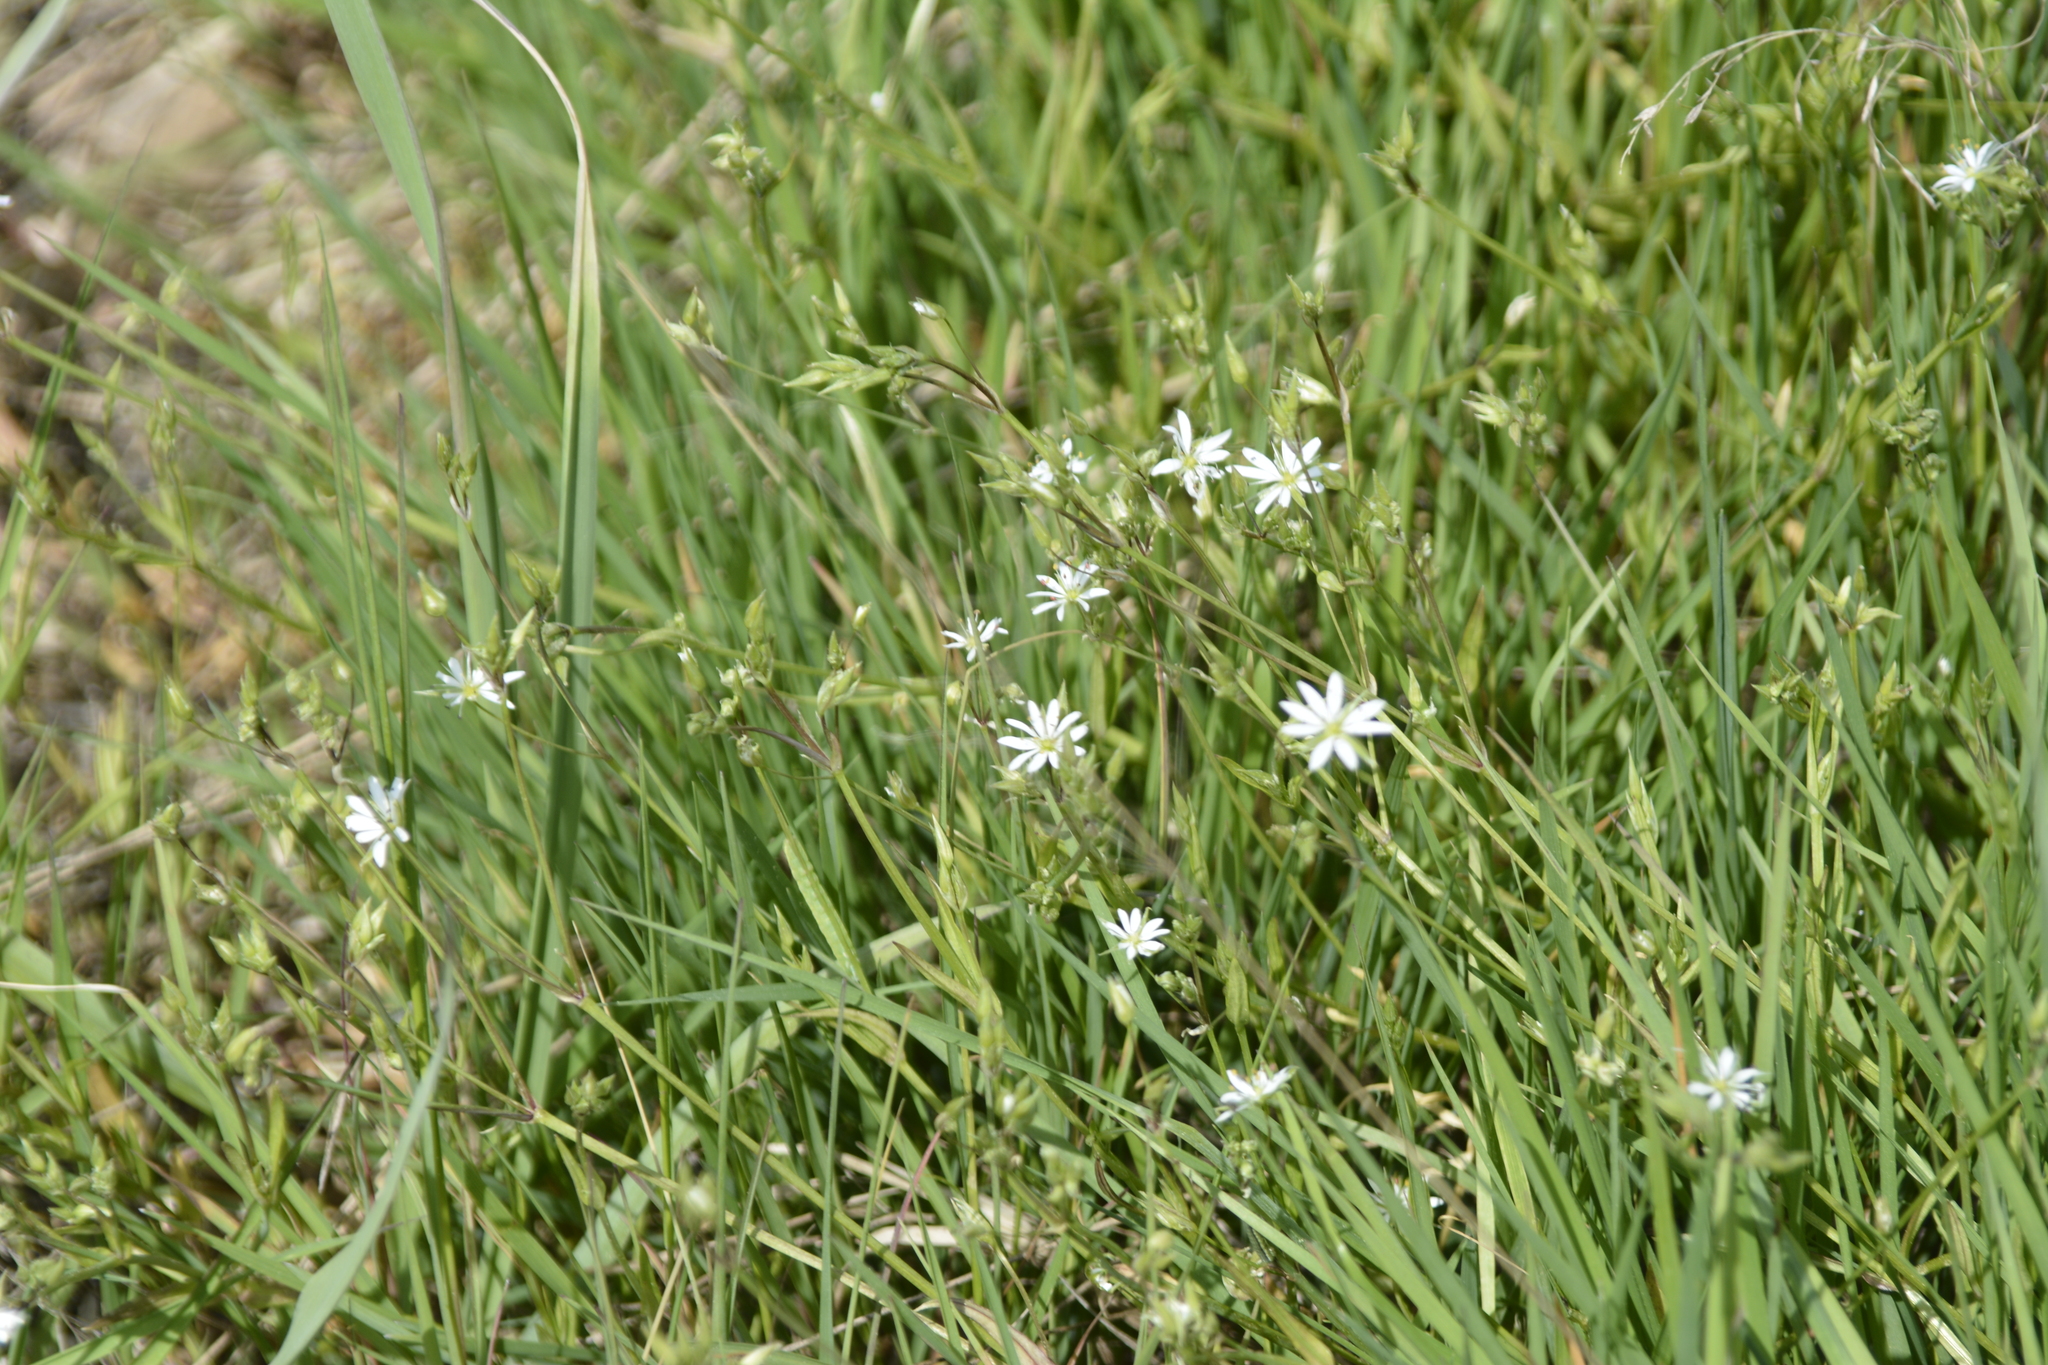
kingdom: Plantae
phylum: Tracheophyta
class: Magnoliopsida
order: Caryophyllales
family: Caryophyllaceae
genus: Stellaria
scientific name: Stellaria graminea
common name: Grass-like starwort
